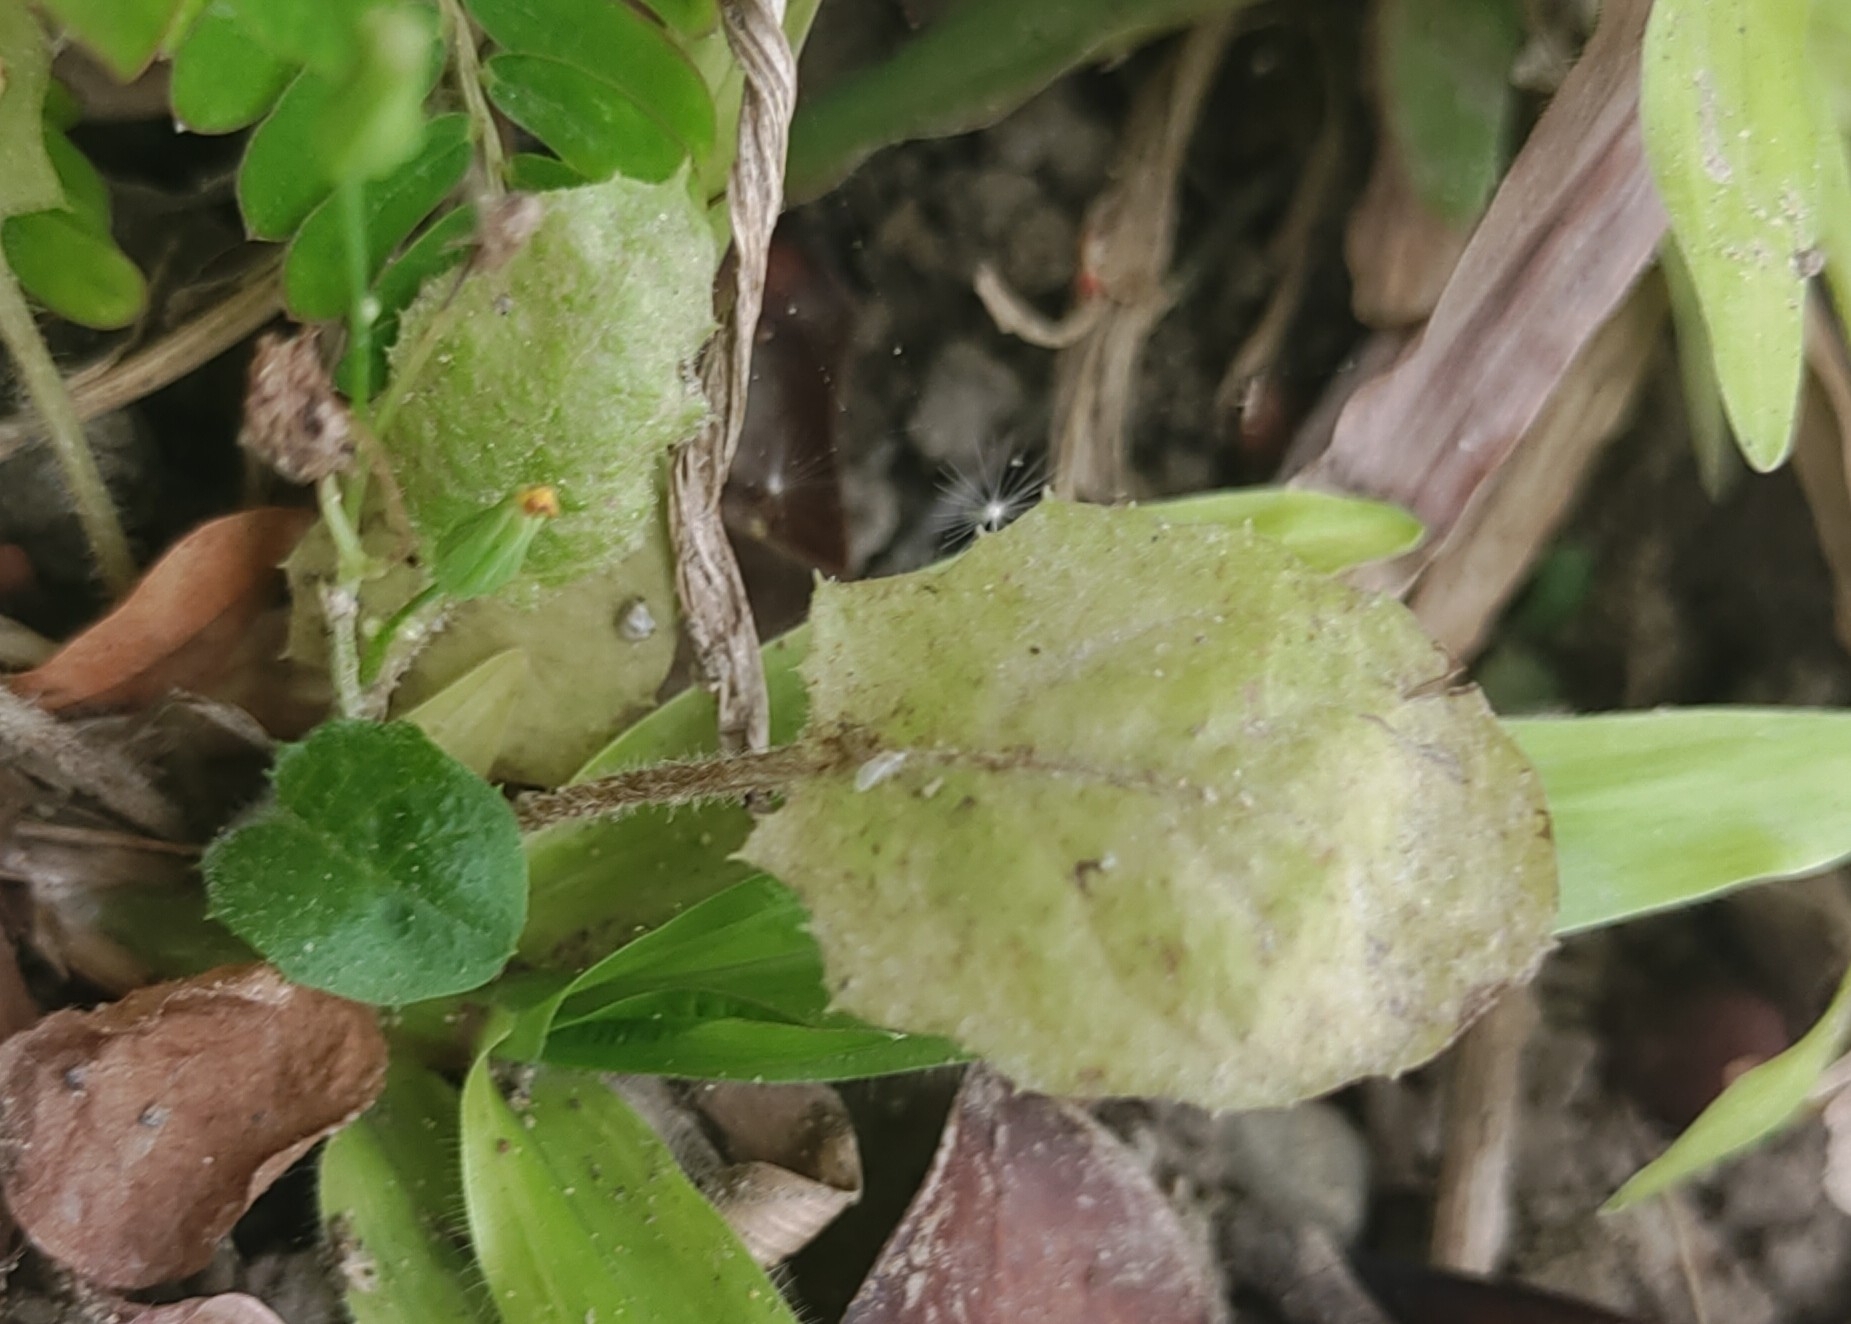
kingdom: Plantae
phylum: Tracheophyta
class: Magnoliopsida
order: Asterales
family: Asteraceae
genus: Youngia
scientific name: Youngia japonica
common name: Oriental false hawksbeard
